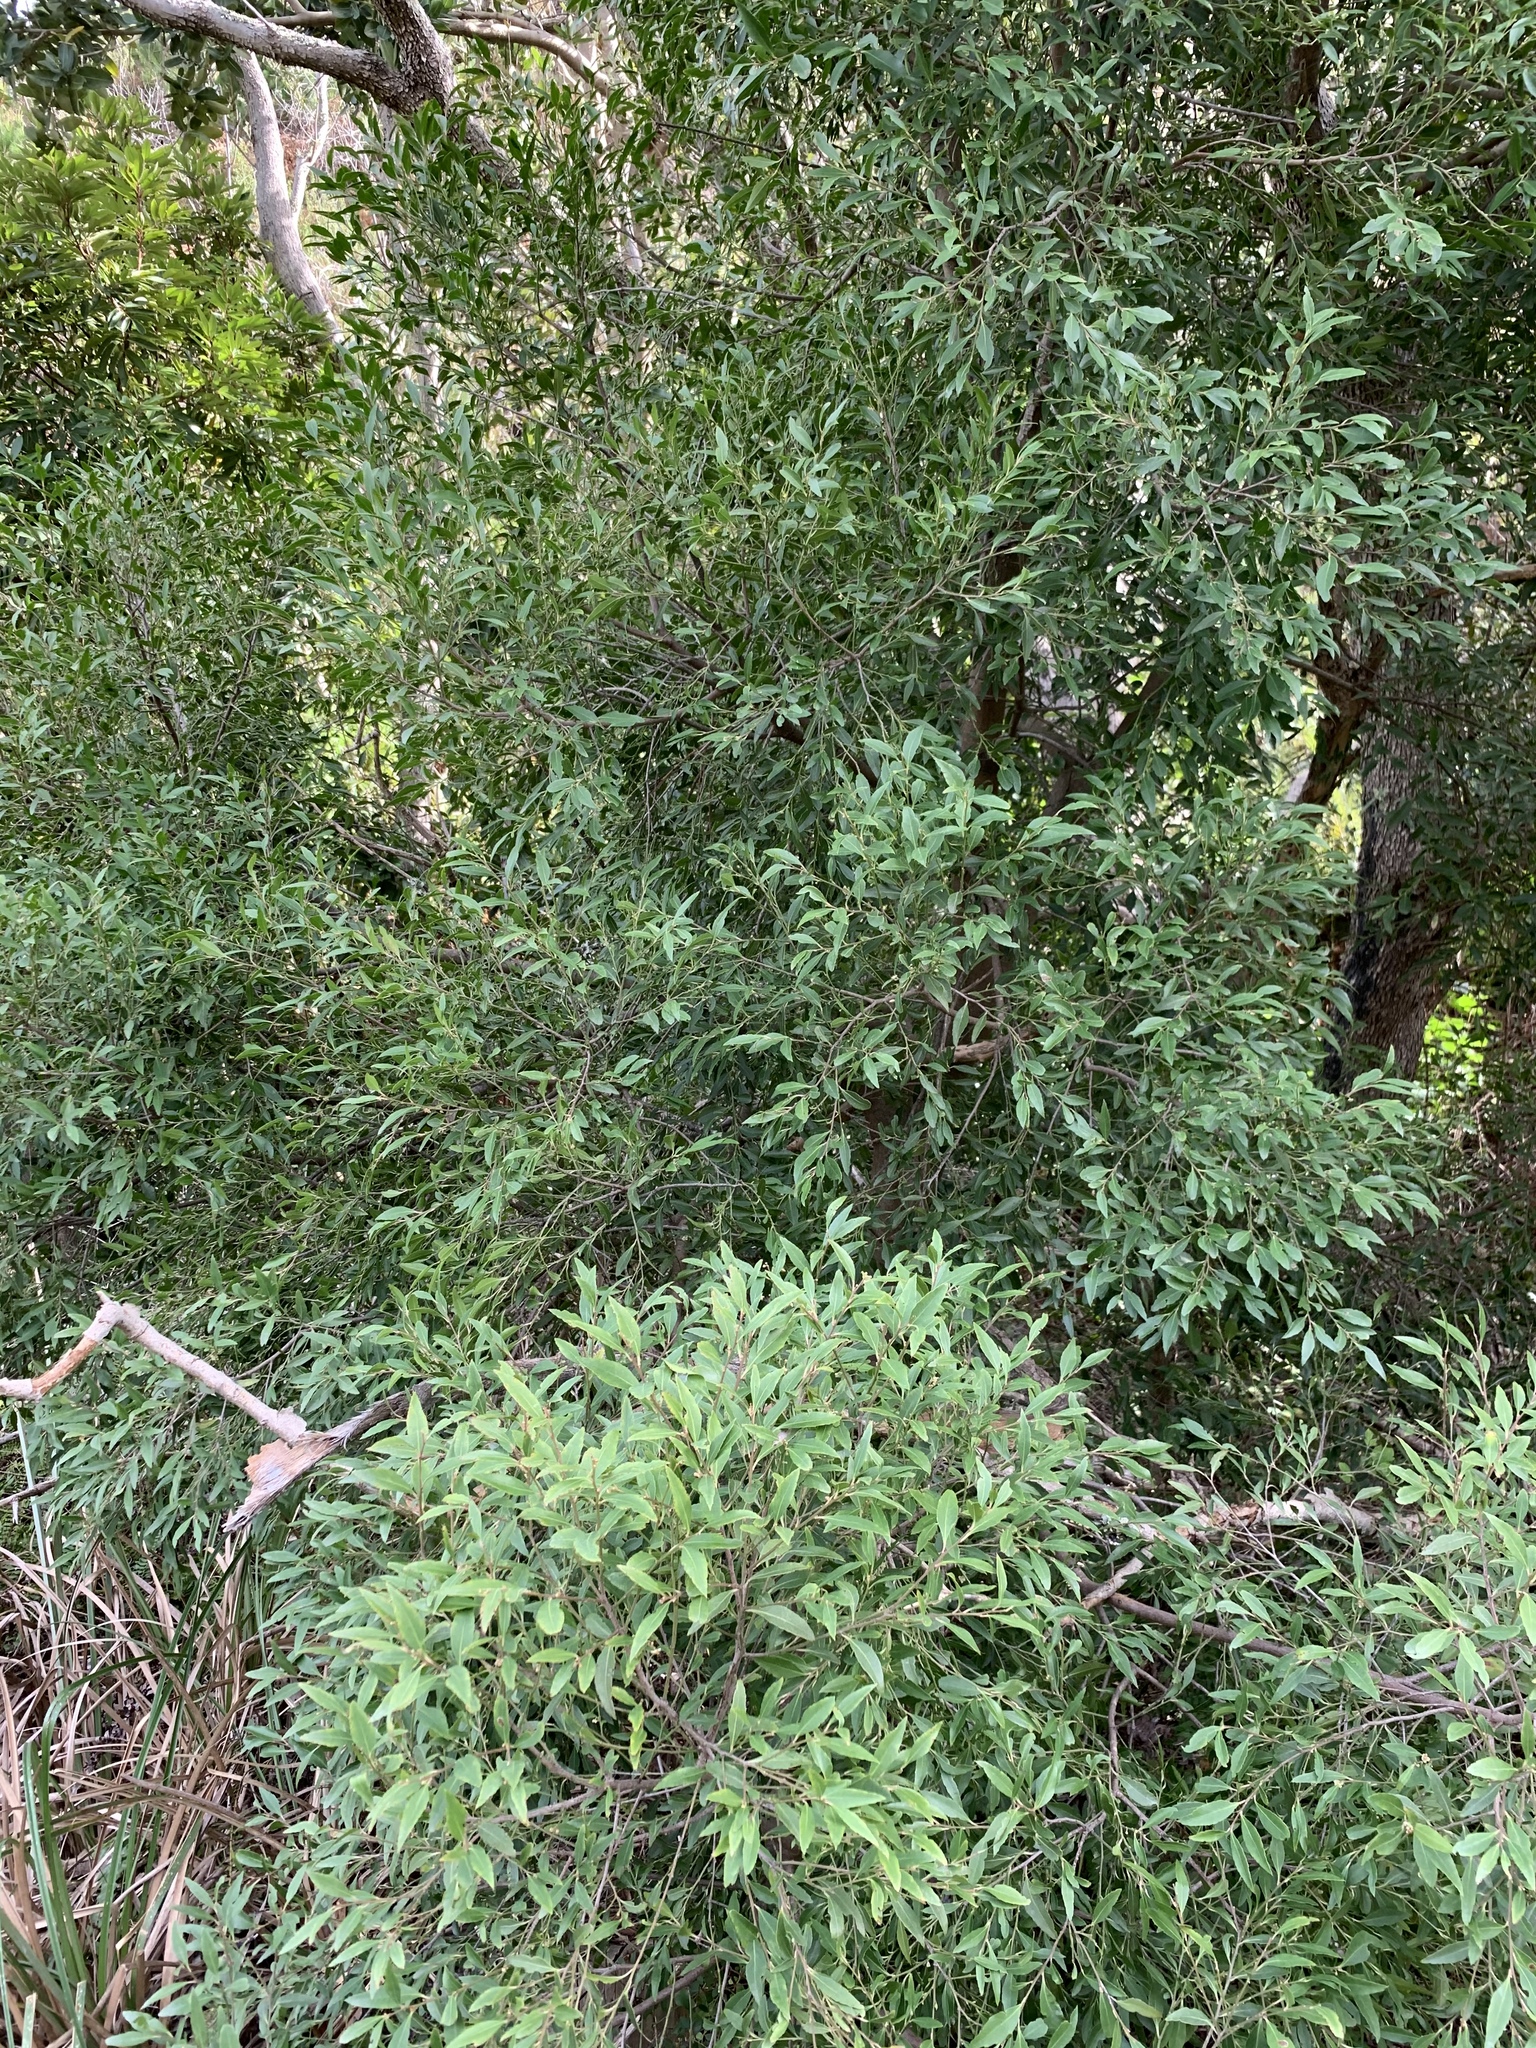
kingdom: Plantae
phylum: Tracheophyta
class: Magnoliopsida
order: Celastrales
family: Celastraceae
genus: Gymnosporia
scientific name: Gymnosporia acuminata
